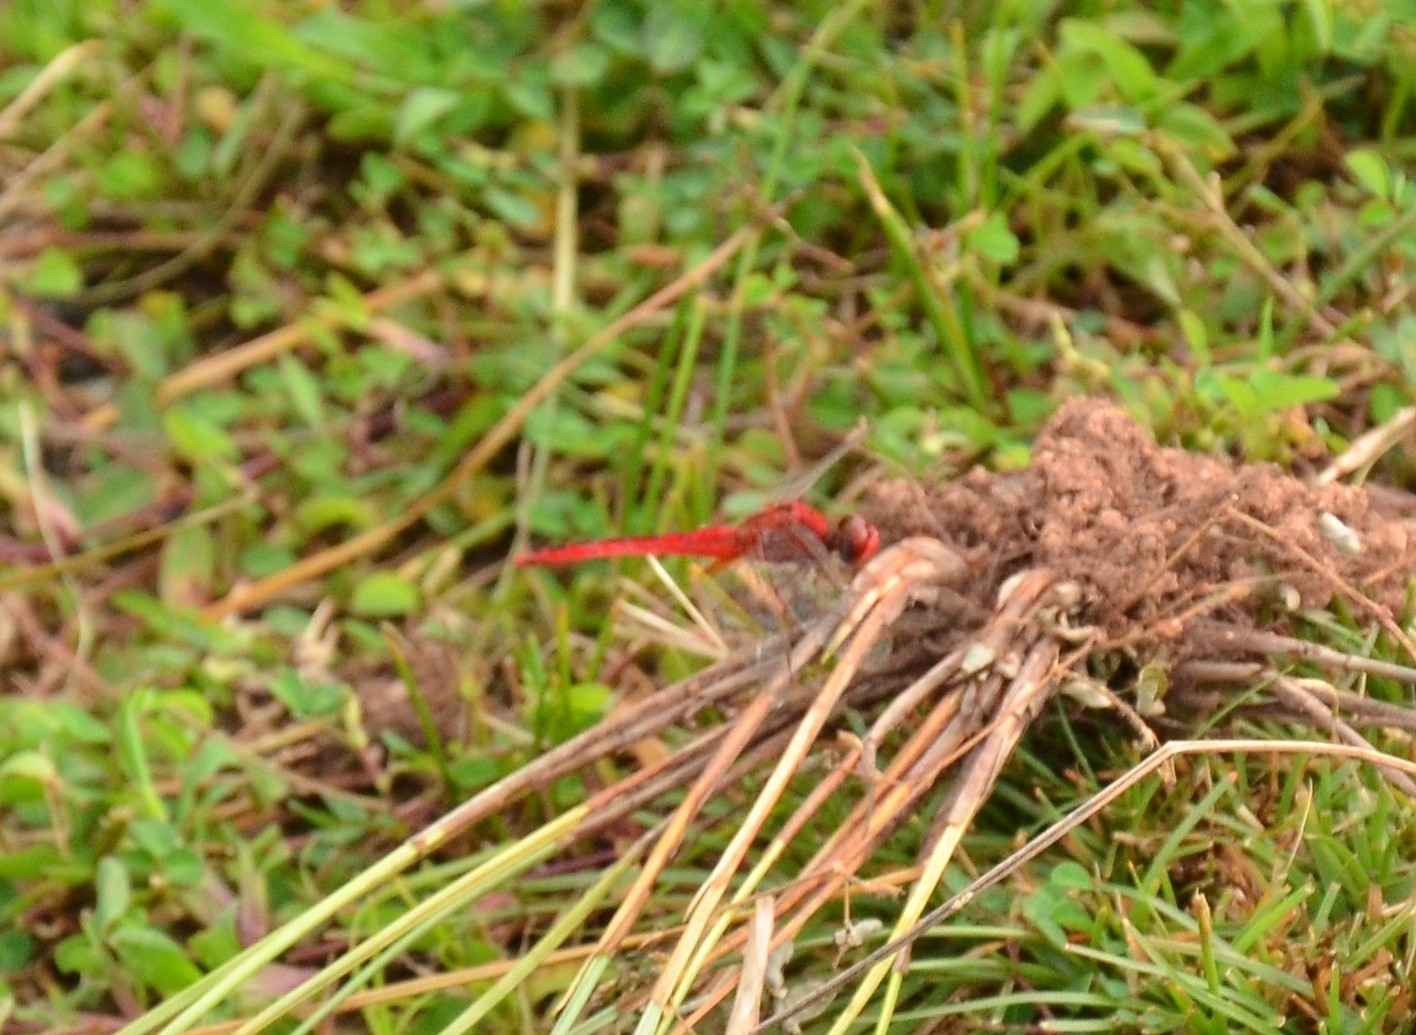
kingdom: Animalia
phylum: Arthropoda
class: Insecta
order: Odonata
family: Libellulidae
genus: Crocothemis
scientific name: Crocothemis servilia
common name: Scarlet skimmer
